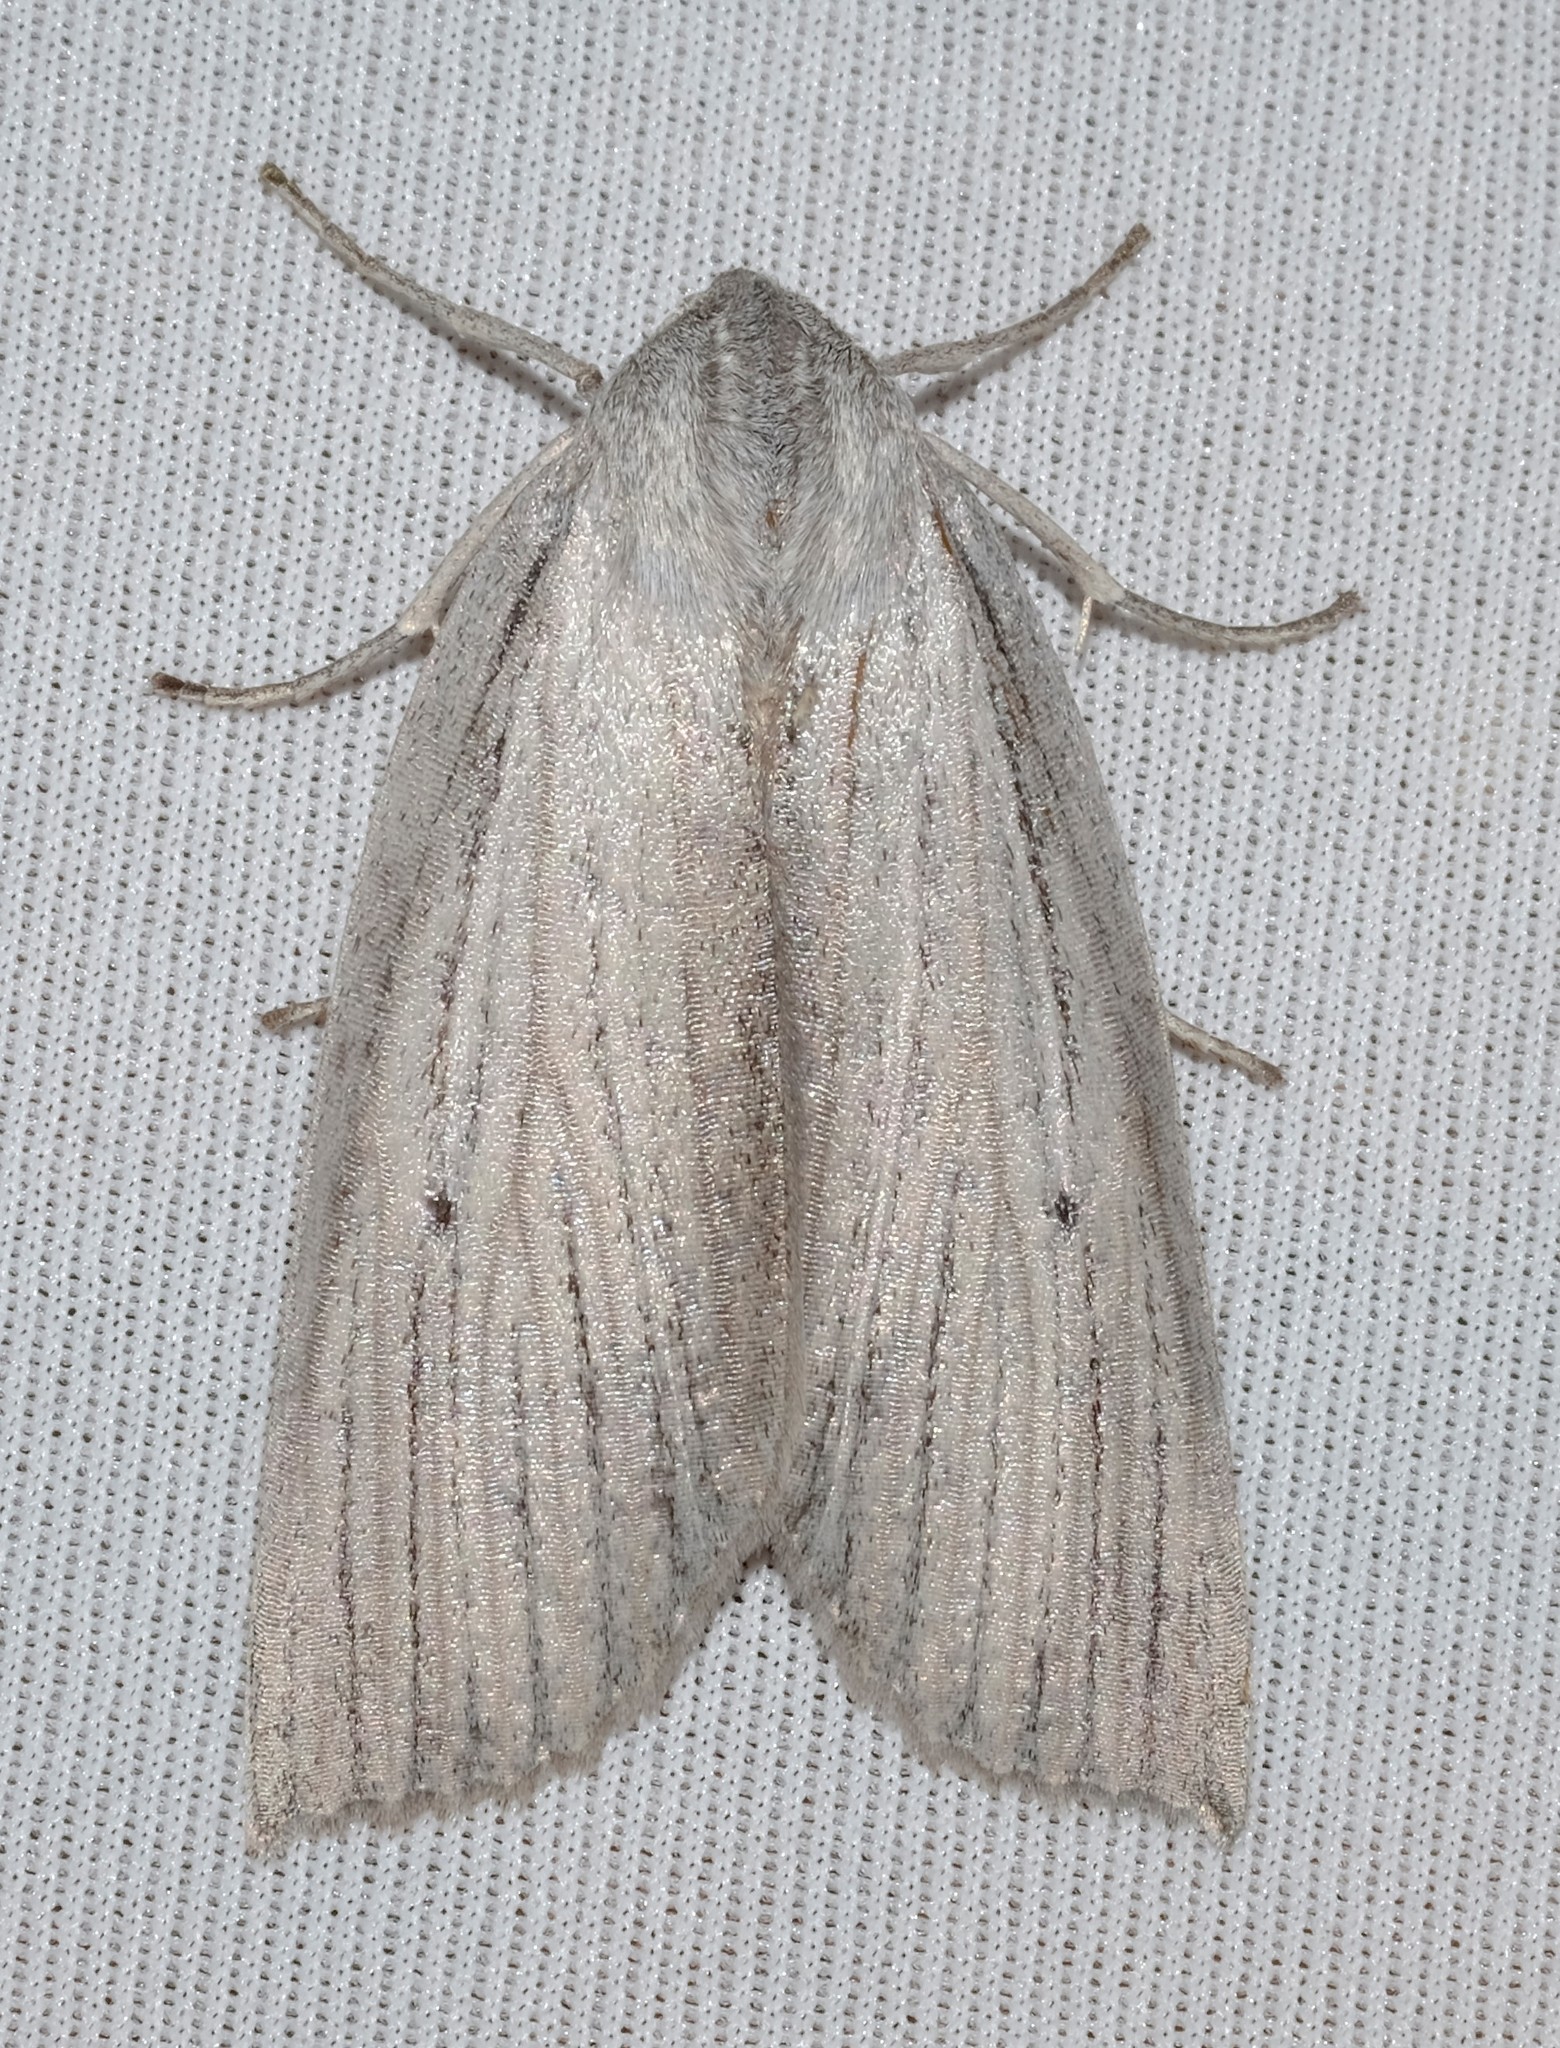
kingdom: Animalia
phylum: Arthropoda
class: Insecta
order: Lepidoptera
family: Geometridae
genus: Paralaea
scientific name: Paralaea polysticha
